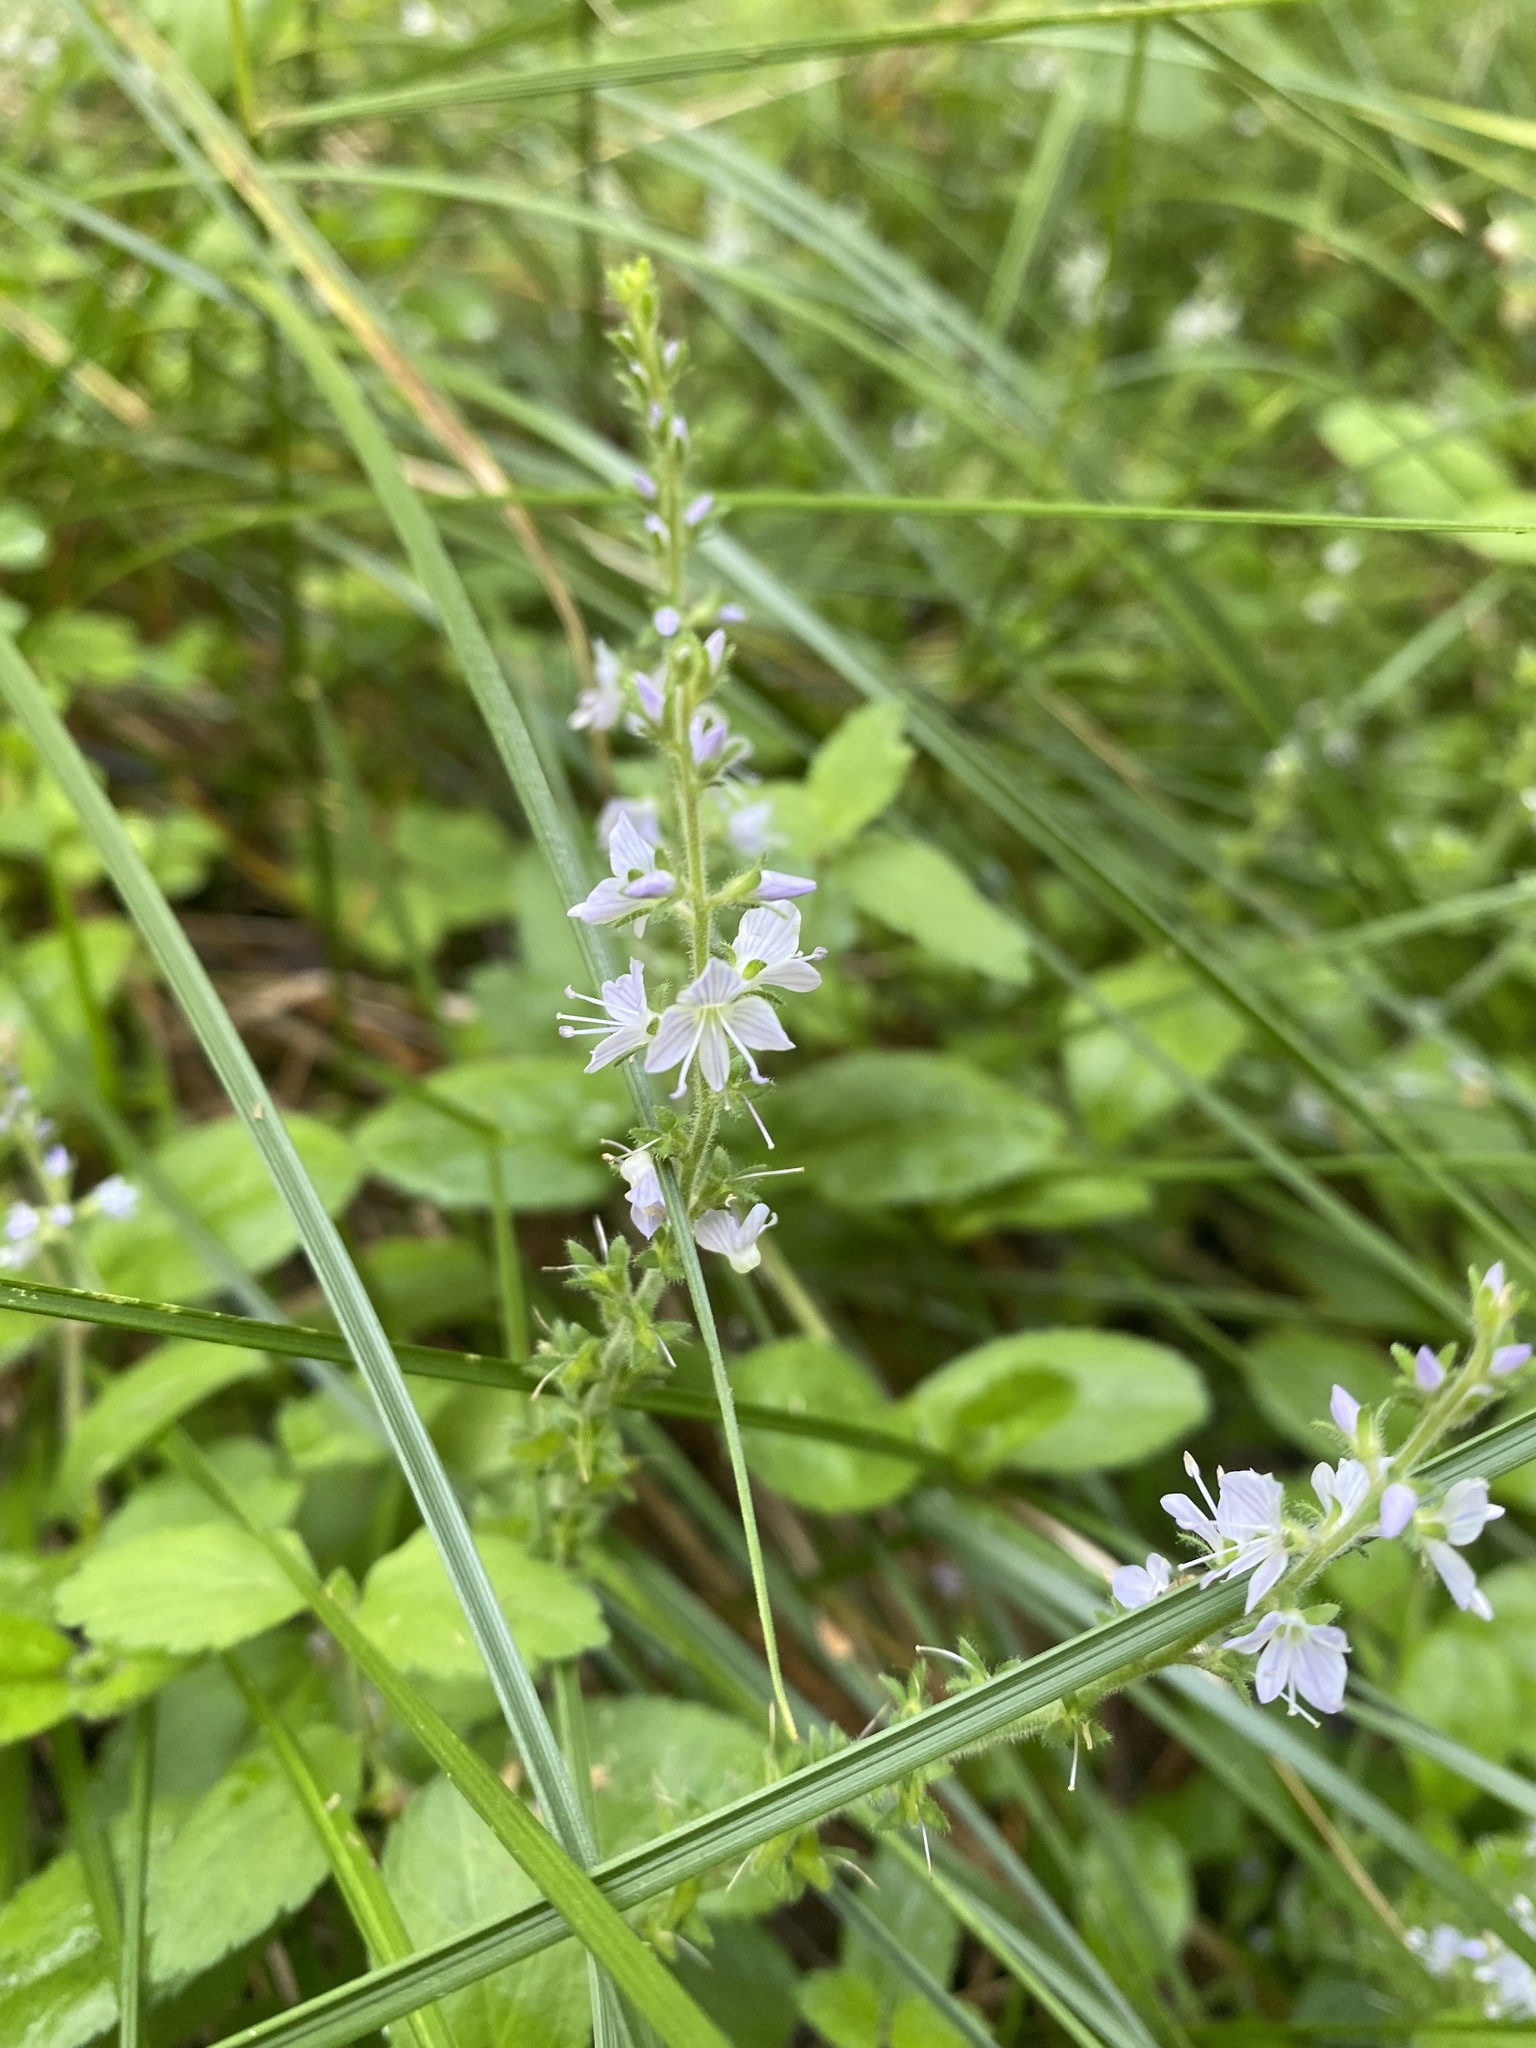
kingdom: Plantae
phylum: Tracheophyta
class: Magnoliopsida
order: Lamiales
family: Plantaginaceae
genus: Veronica
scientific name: Veronica officinalis
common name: Common speedwell
